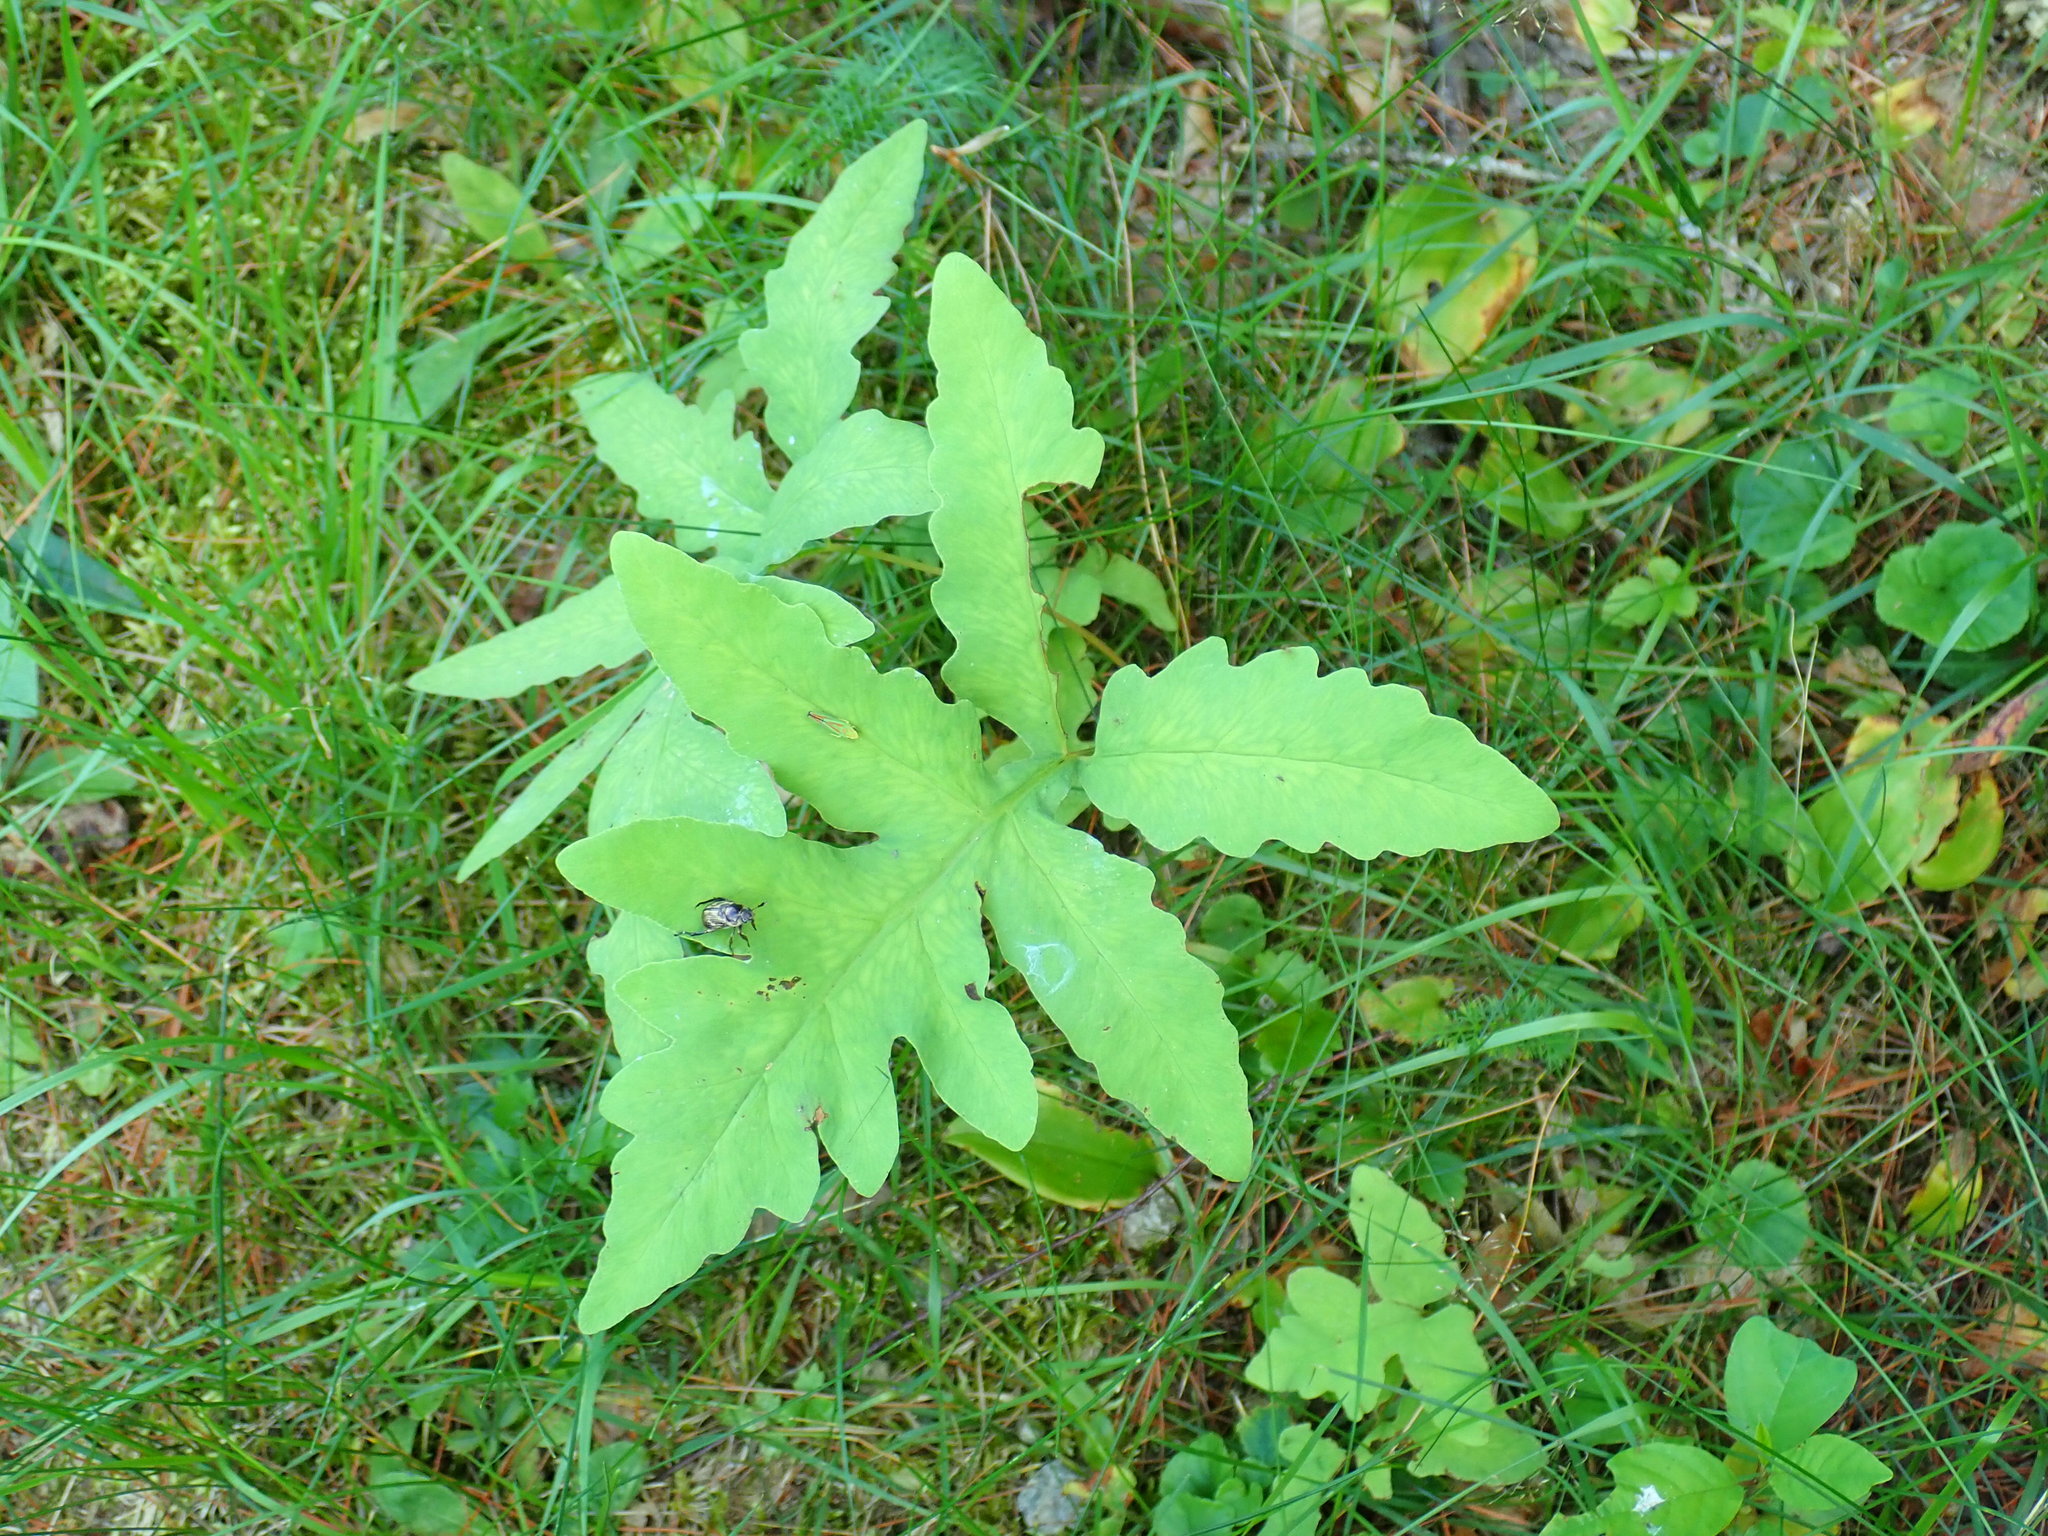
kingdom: Plantae
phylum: Tracheophyta
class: Polypodiopsida
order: Polypodiales
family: Onocleaceae
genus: Onoclea
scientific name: Onoclea sensibilis
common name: Sensitive fern
